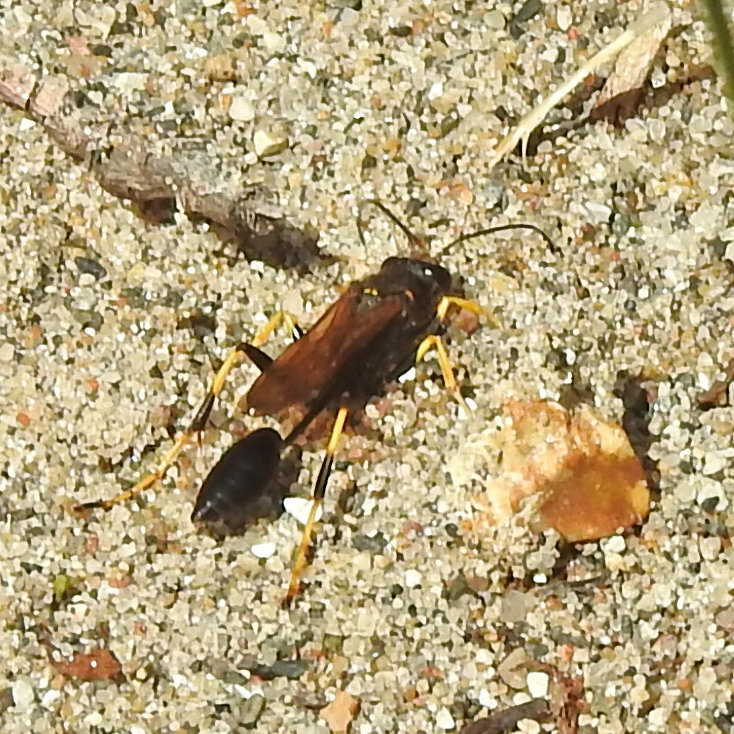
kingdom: Animalia
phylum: Arthropoda
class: Insecta
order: Hymenoptera
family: Sphecidae
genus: Sceliphron
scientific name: Sceliphron caementarium
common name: Mud dauber
